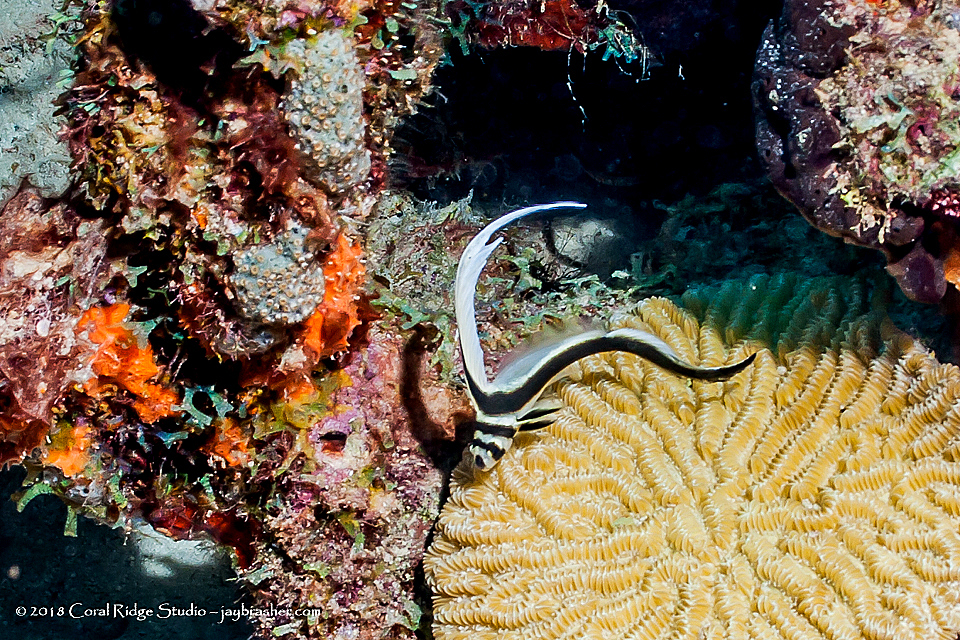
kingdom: Animalia
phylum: Chordata
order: Perciformes
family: Sciaenidae
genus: Equetus
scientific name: Equetus punctatus
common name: Spotted drum
